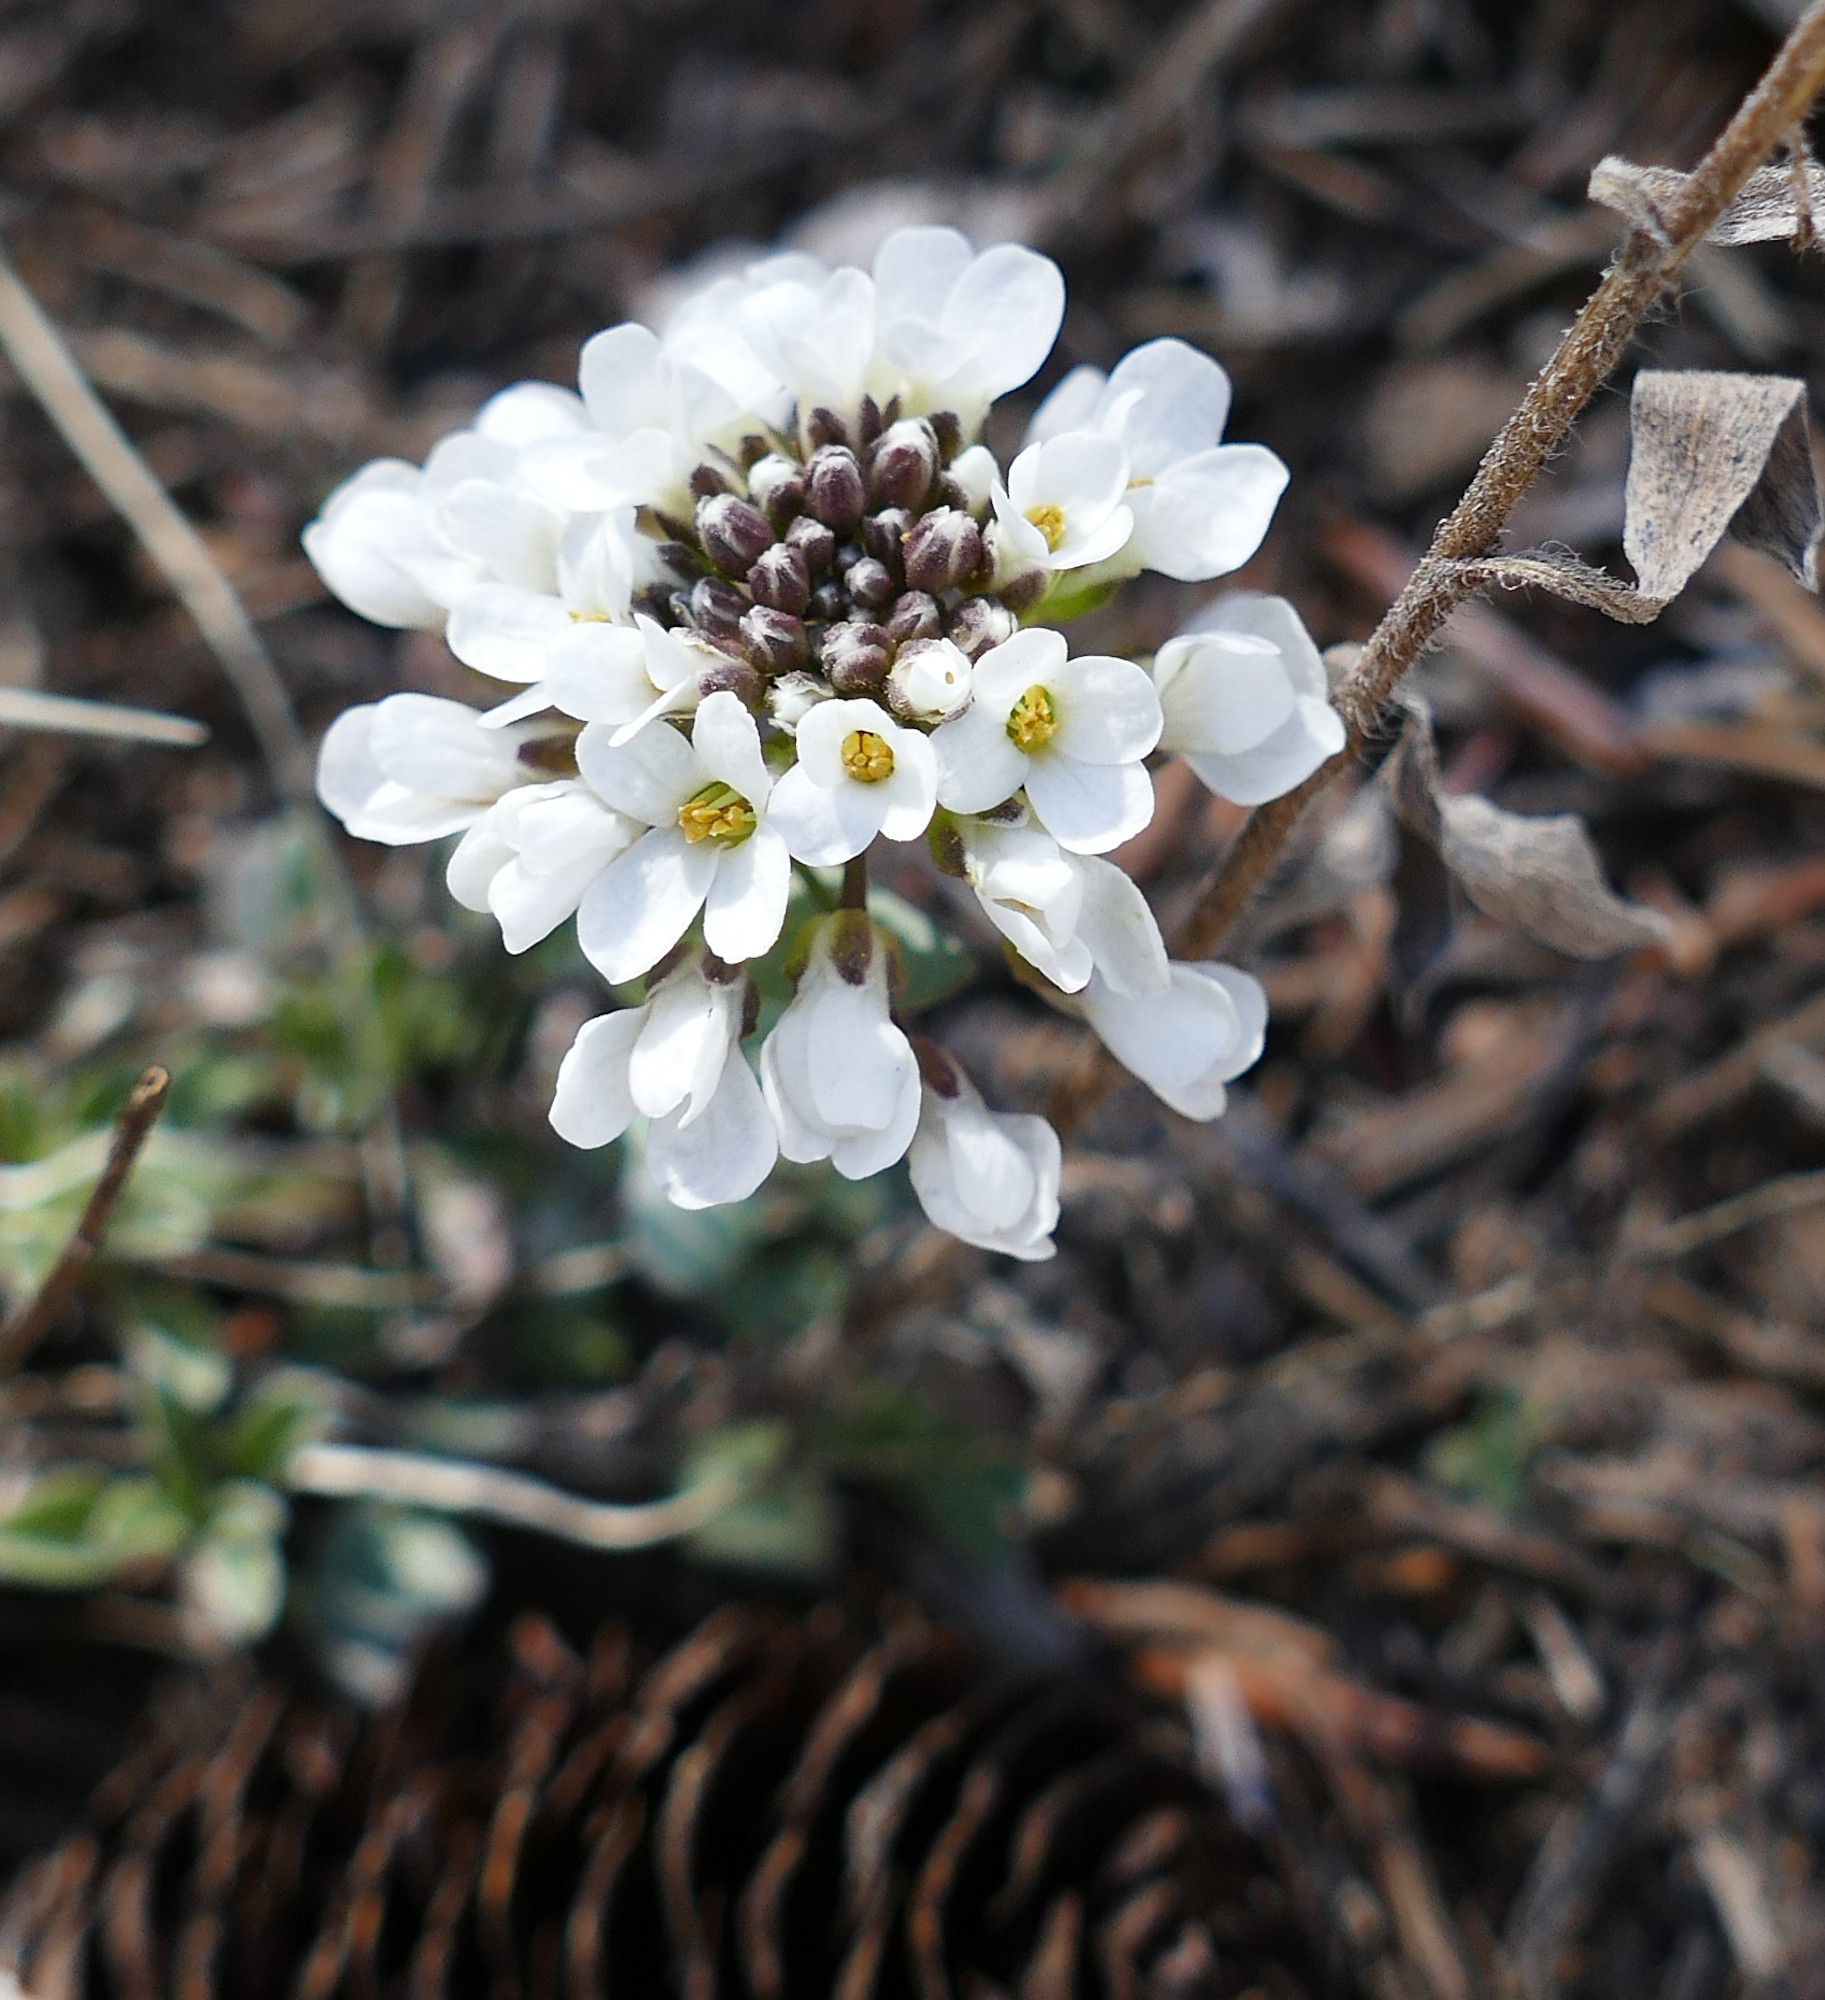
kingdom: Plantae
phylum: Tracheophyta
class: Magnoliopsida
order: Brassicales
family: Brassicaceae
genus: Noccaea
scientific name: Noccaea fendleri
